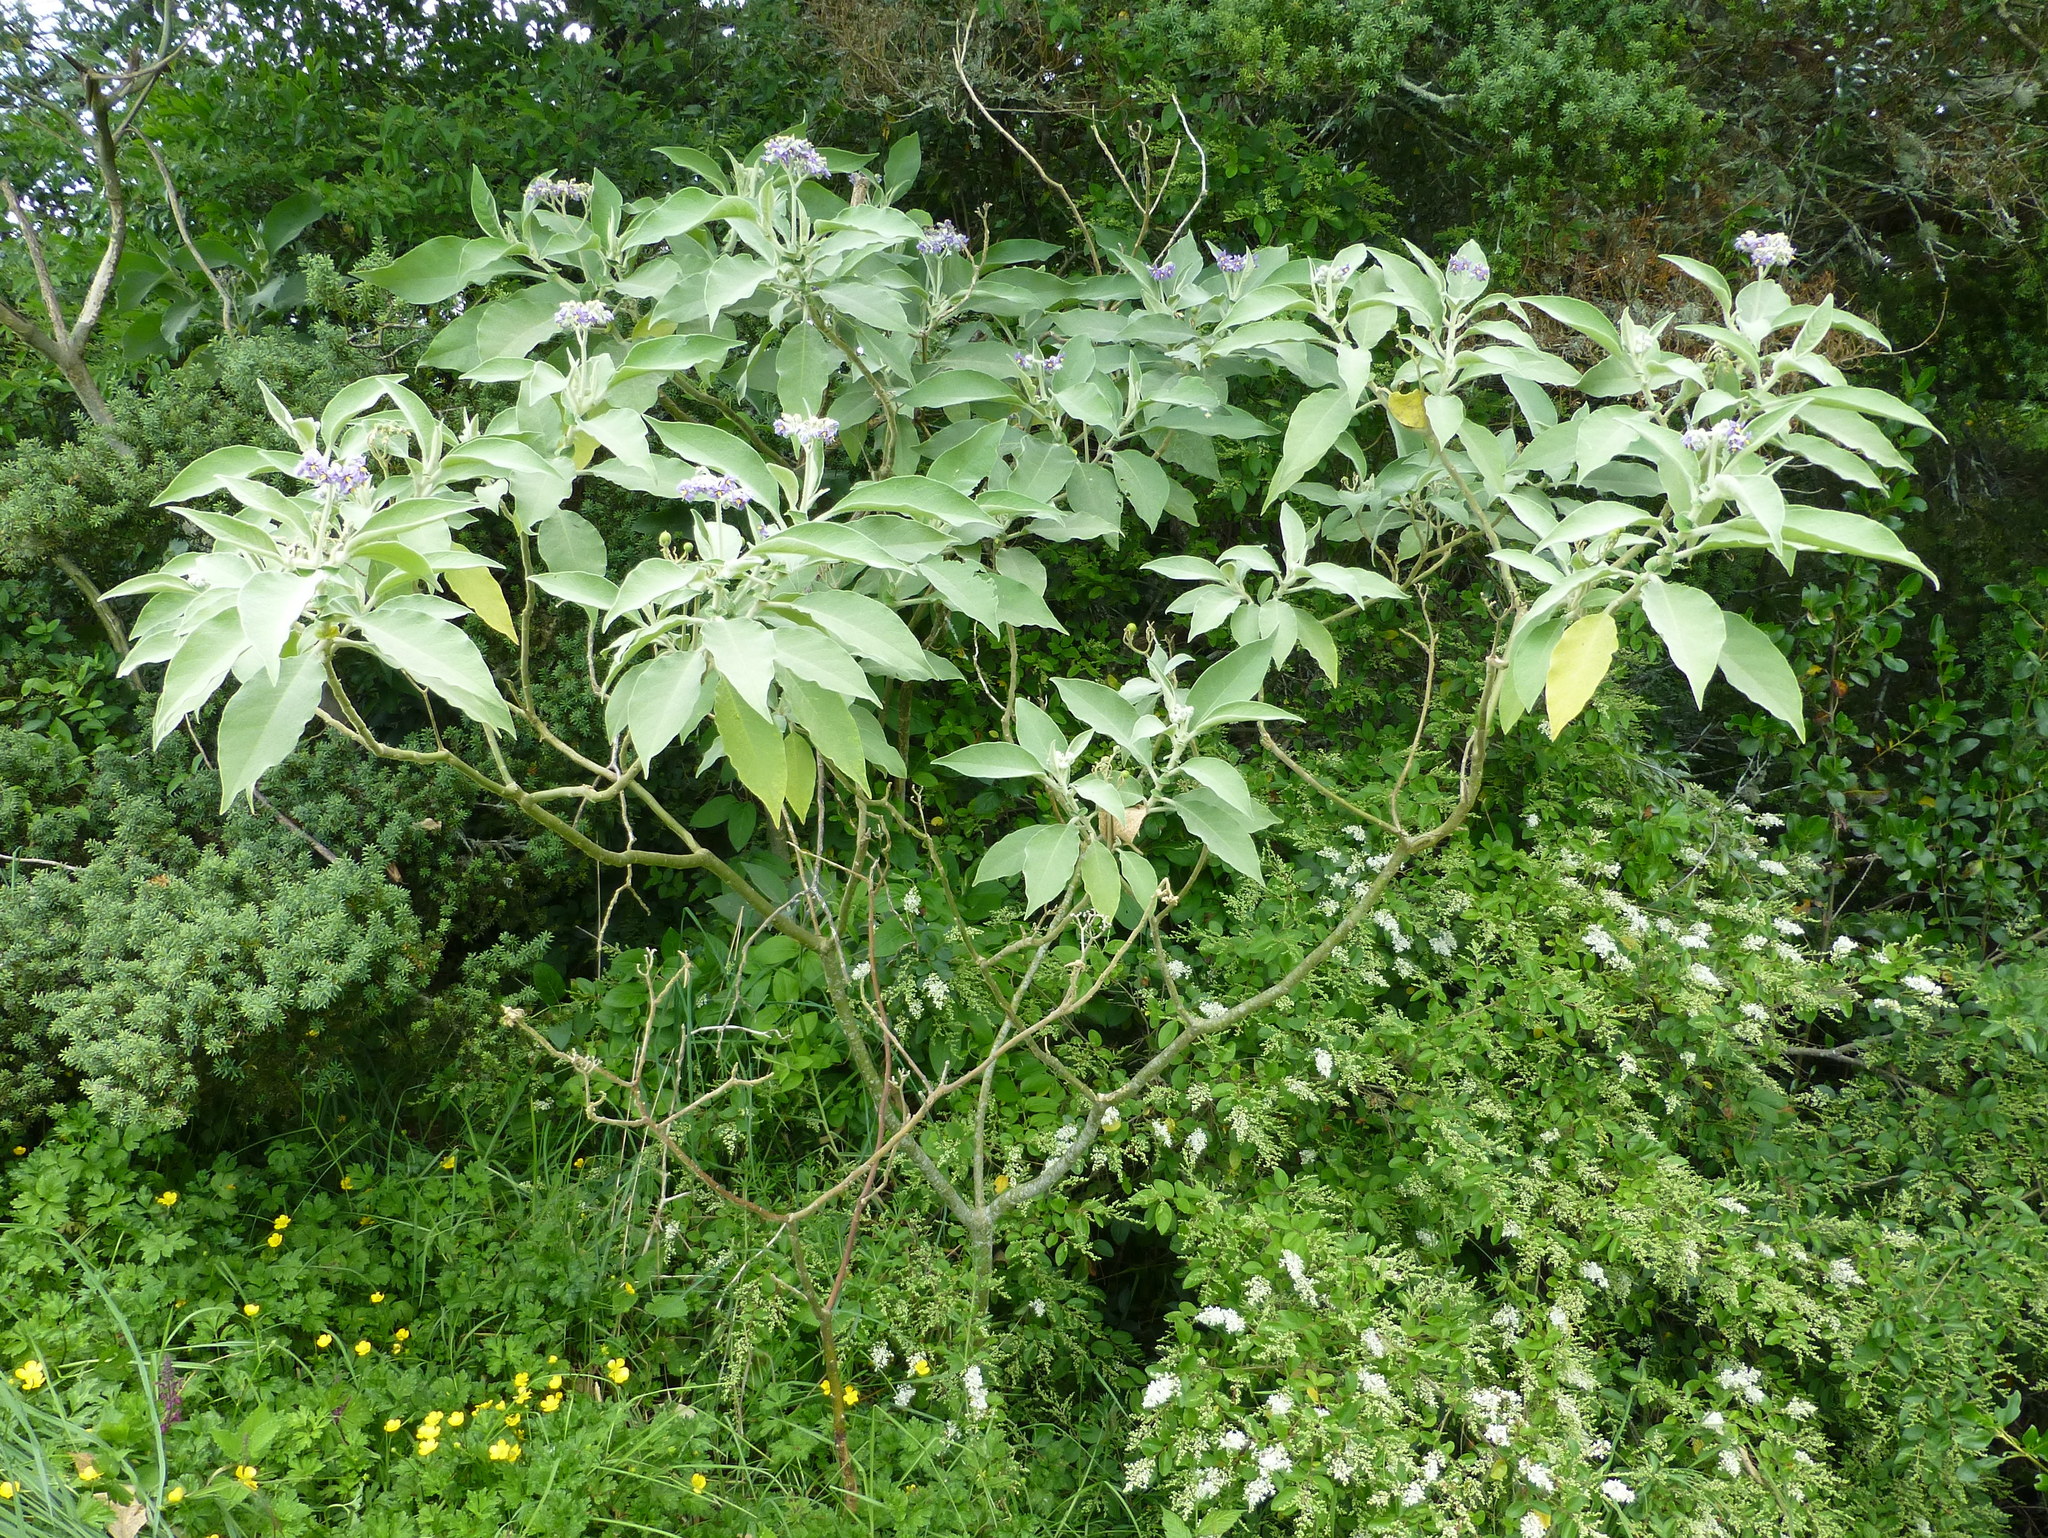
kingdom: Plantae
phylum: Tracheophyta
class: Magnoliopsida
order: Solanales
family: Solanaceae
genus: Solanum
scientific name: Solanum mauritianum
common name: Earleaf nightshade
